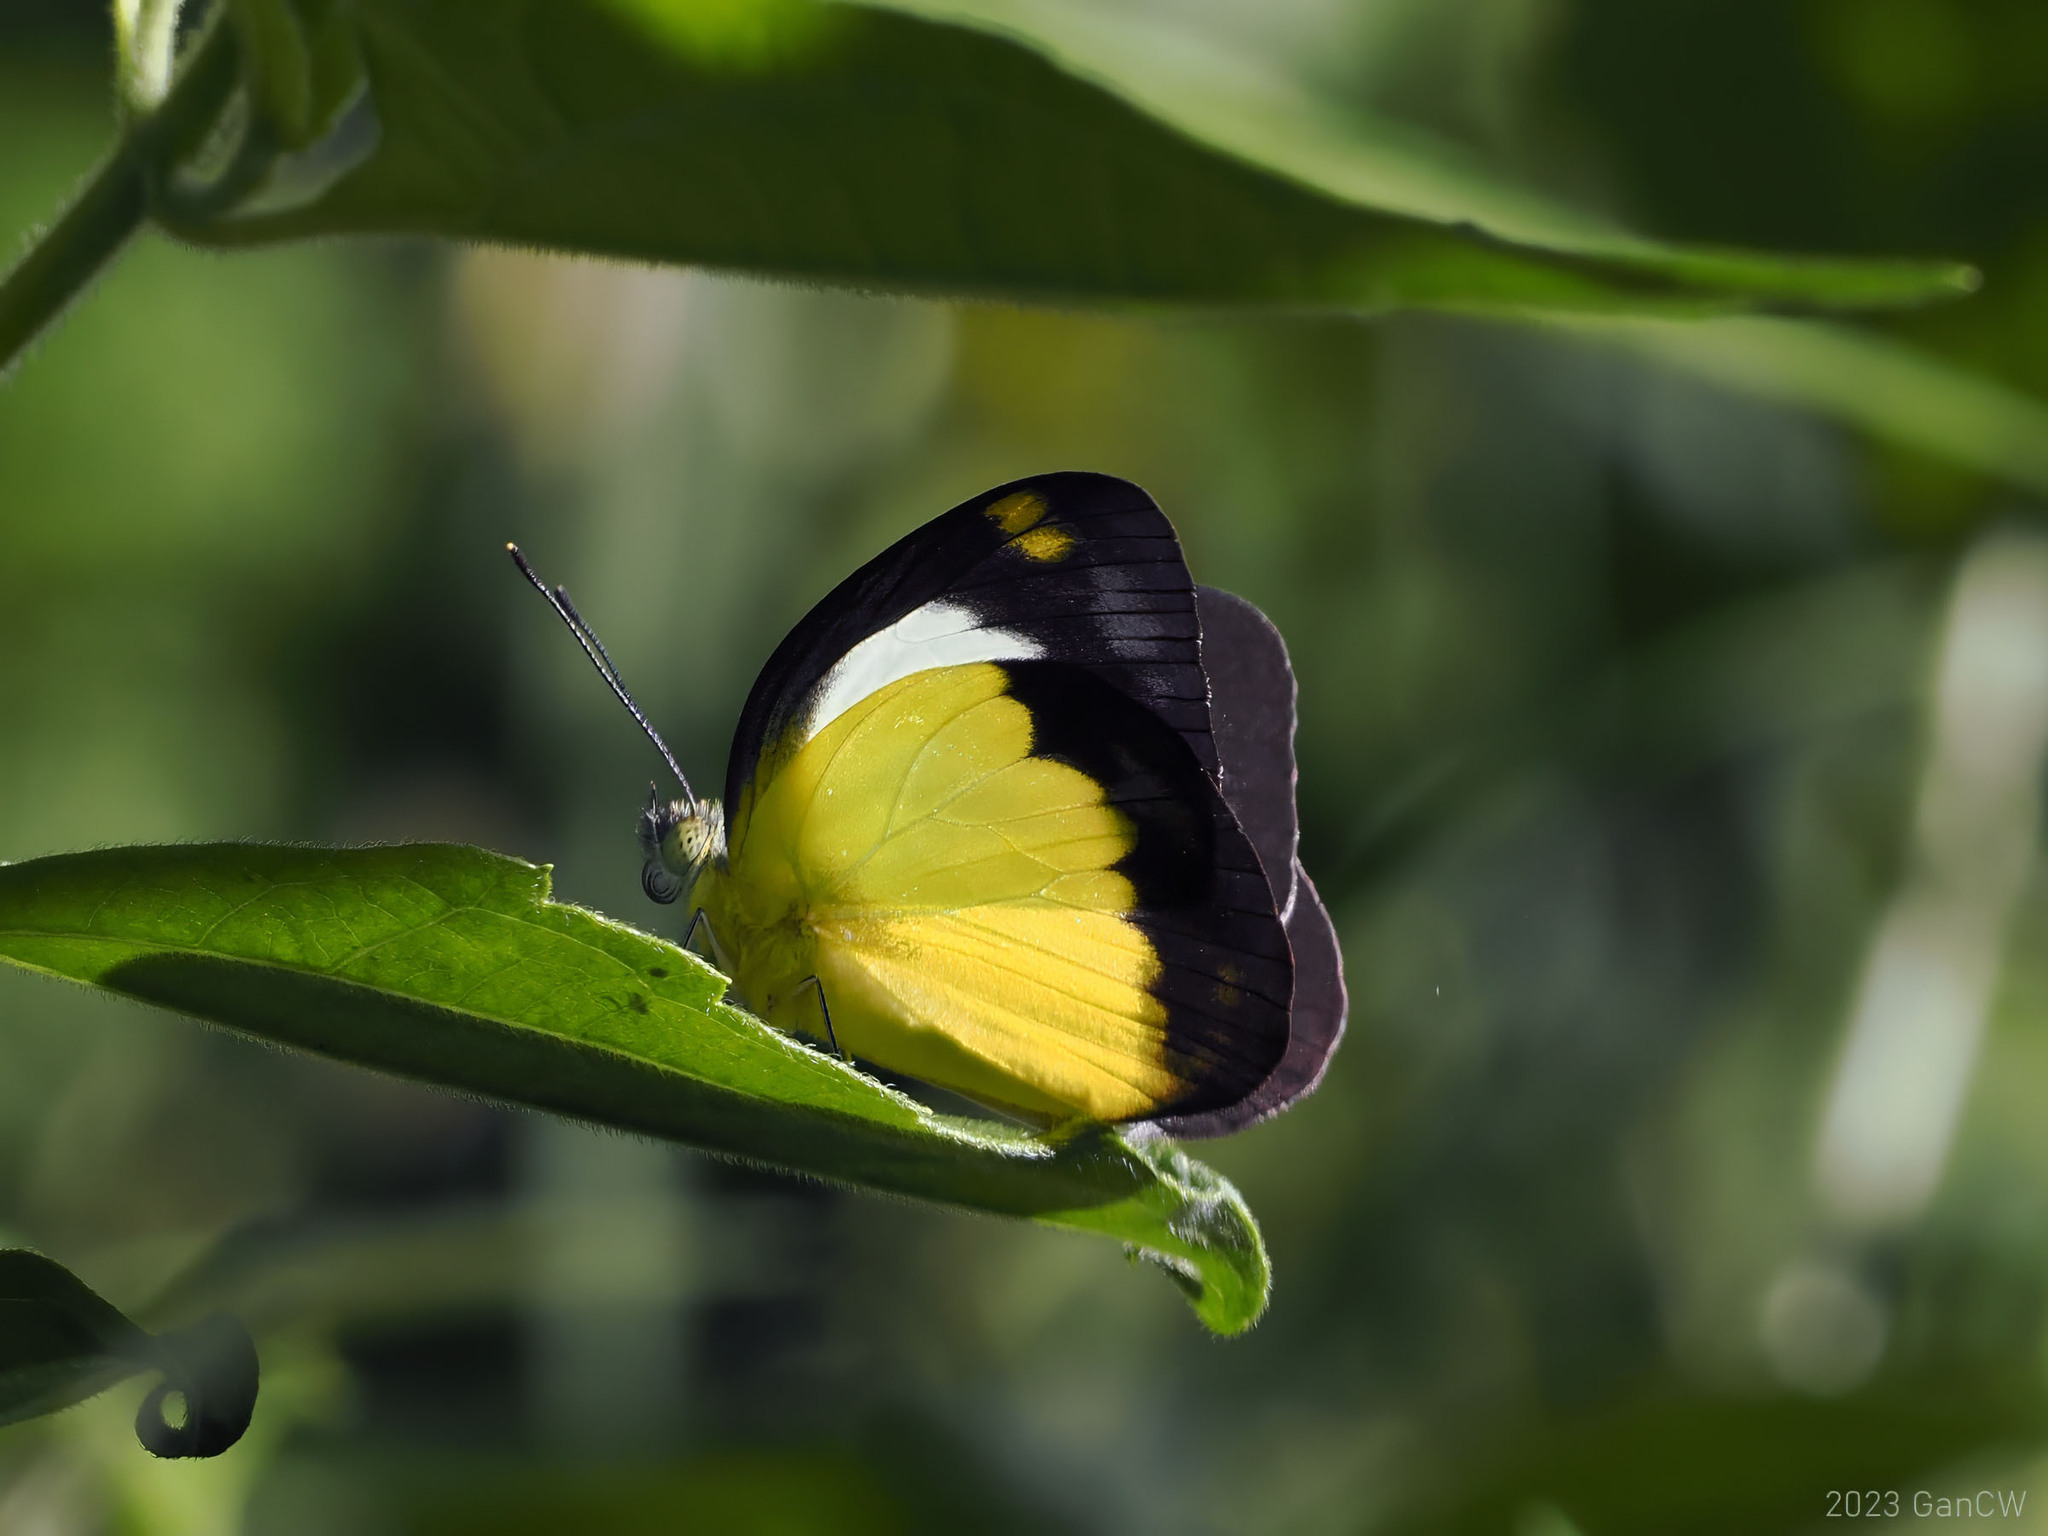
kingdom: Animalia
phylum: Arthropoda
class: Insecta
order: Lepidoptera
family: Pieridae
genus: Cepora
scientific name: Cepora boisduvaliana
